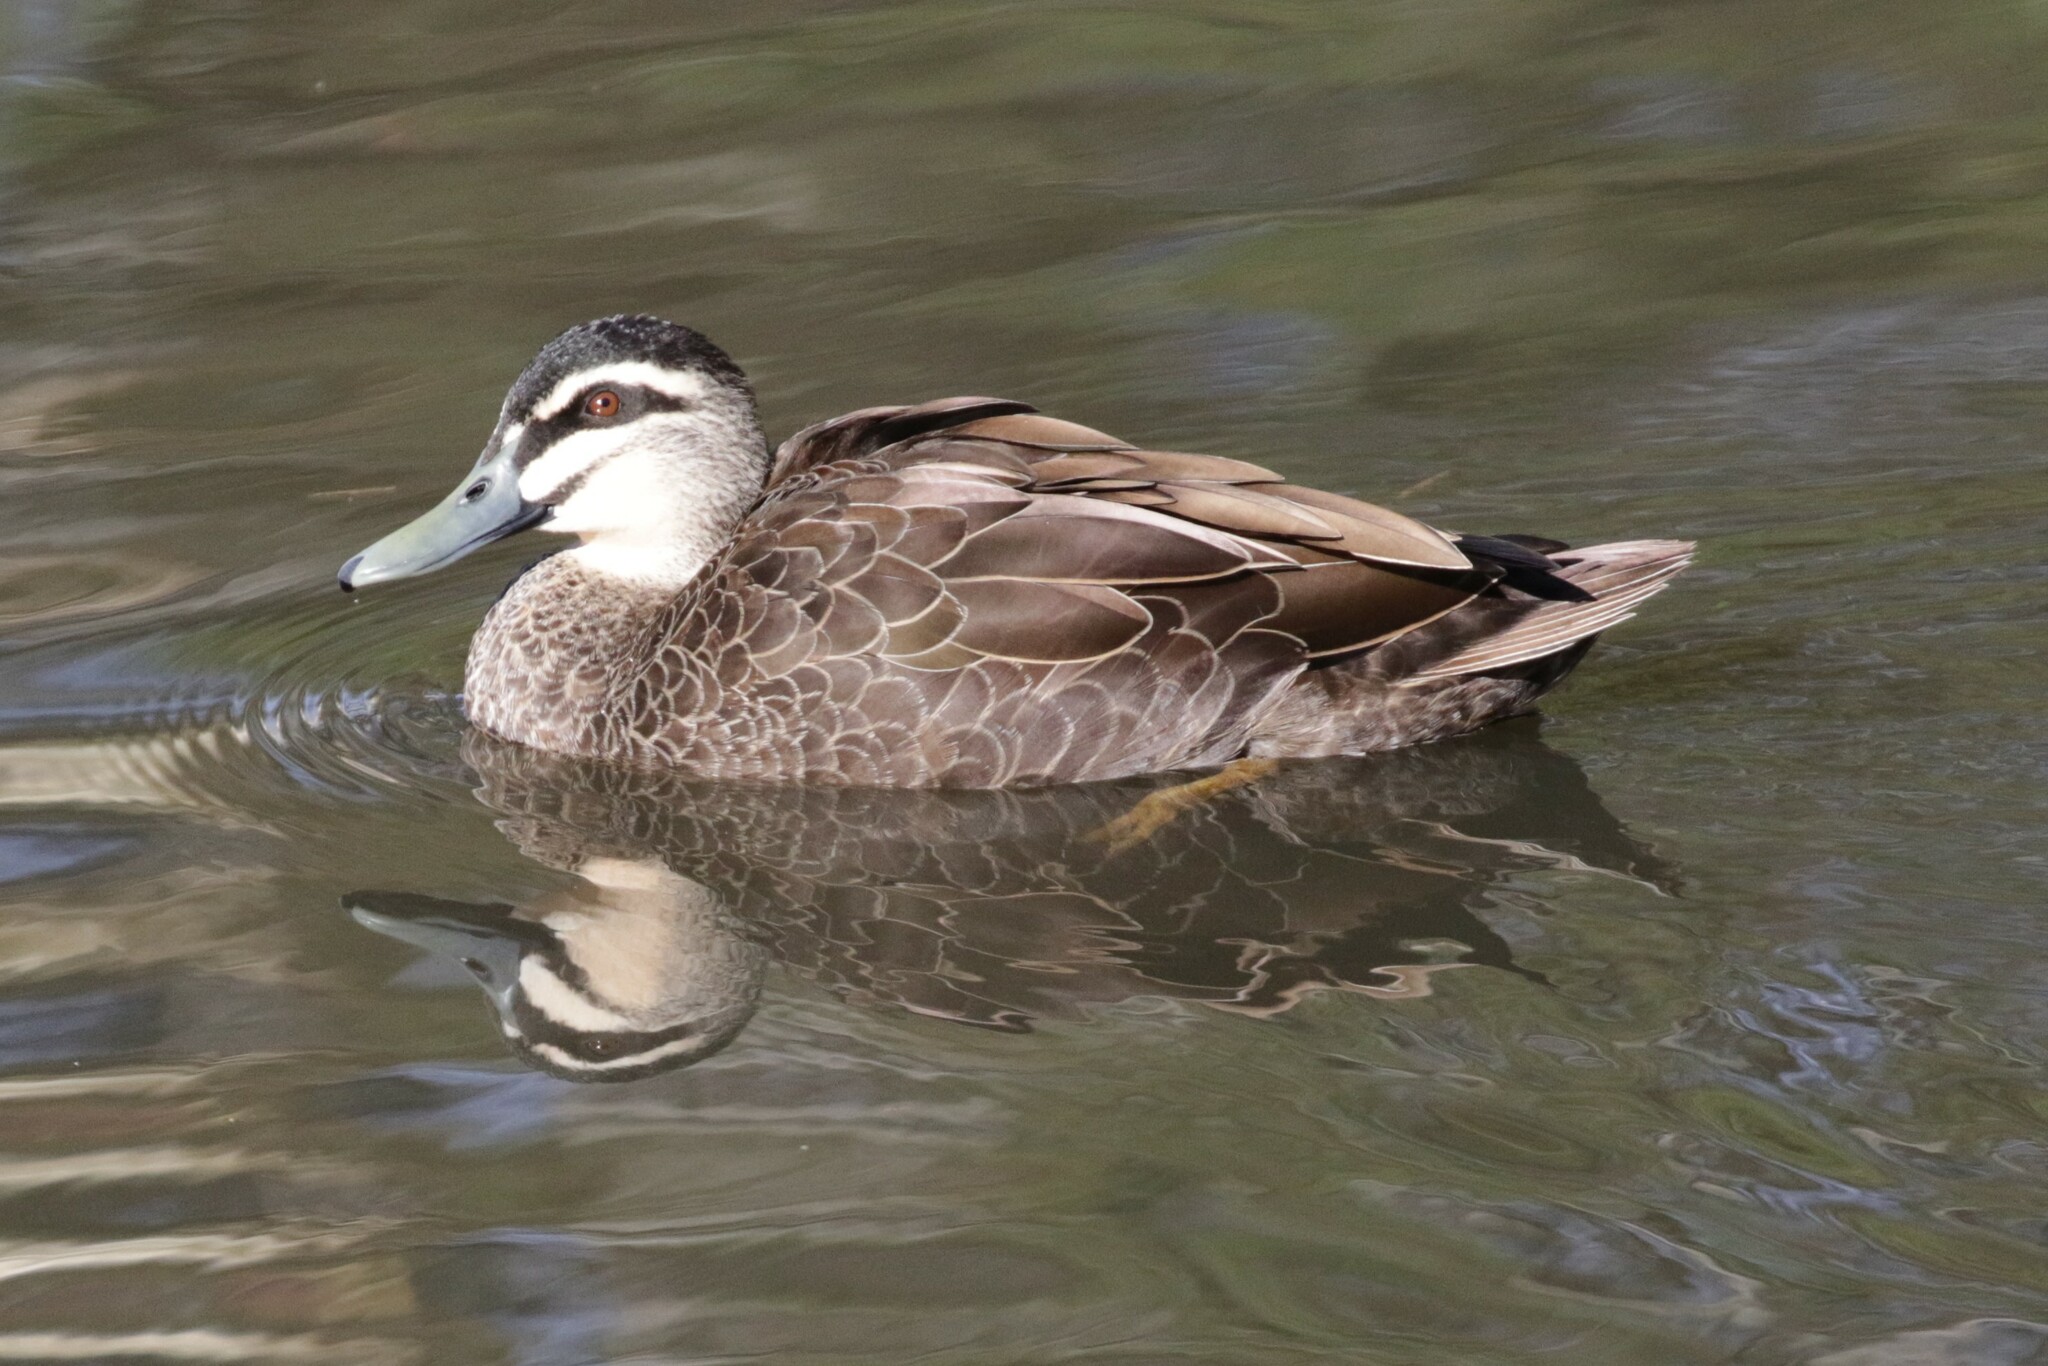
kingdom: Animalia
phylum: Chordata
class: Aves
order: Anseriformes
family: Anatidae
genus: Anas
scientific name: Anas superciliosa
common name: Pacific black duck
